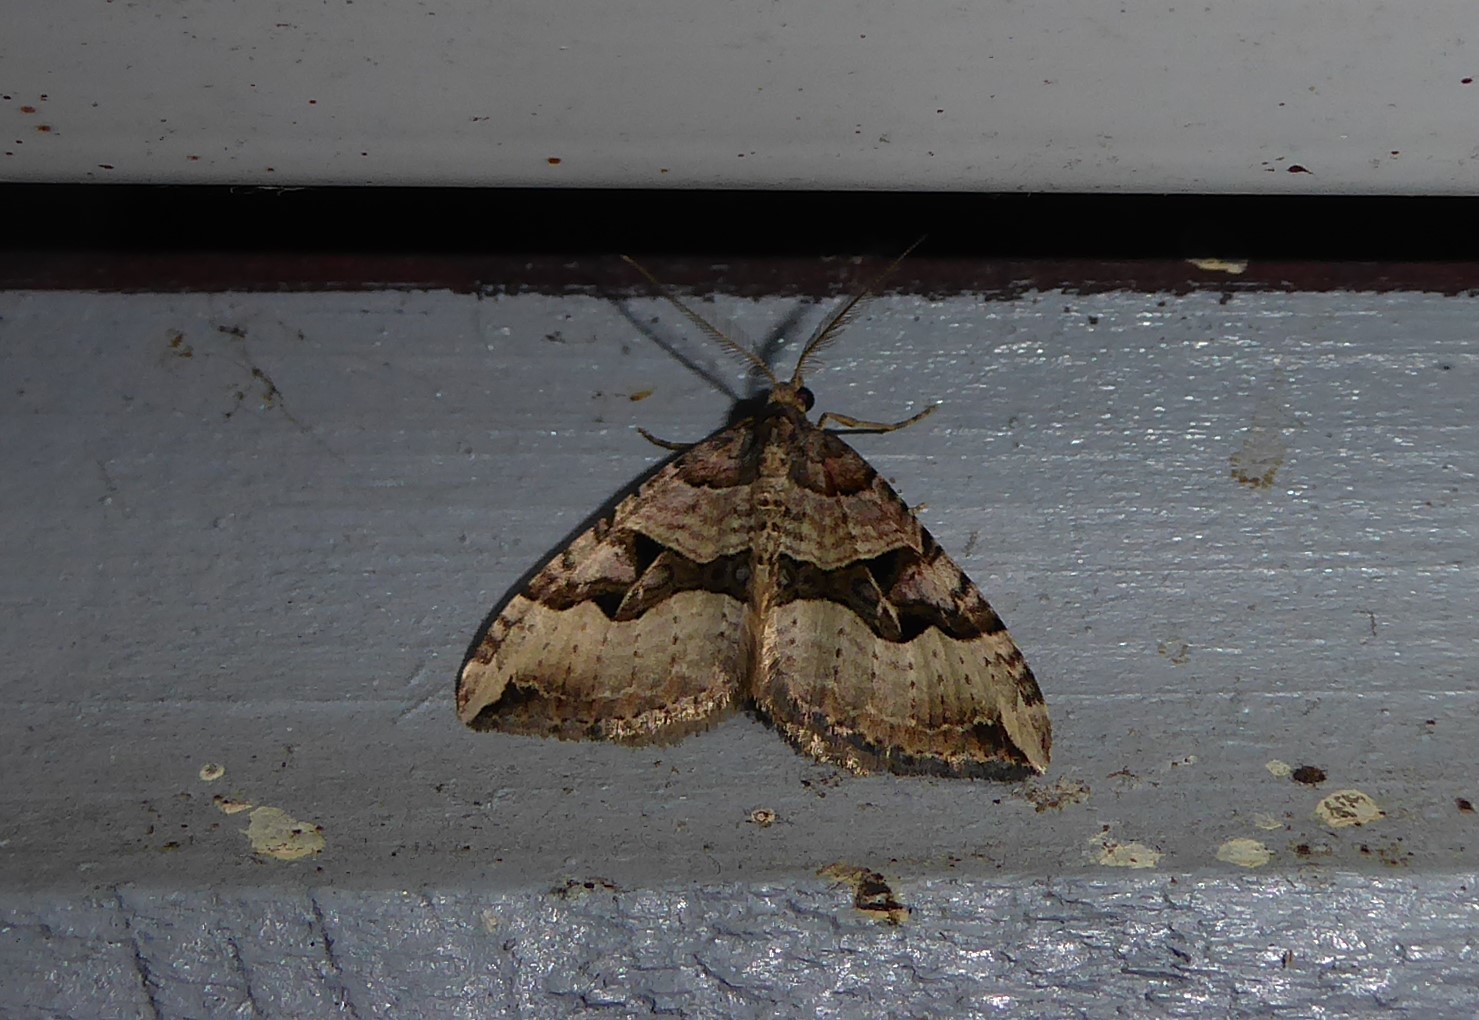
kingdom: Animalia
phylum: Arthropoda
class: Insecta
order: Lepidoptera
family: Geometridae
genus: Xanthorhoe
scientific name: Xanthorhoe semifissata
